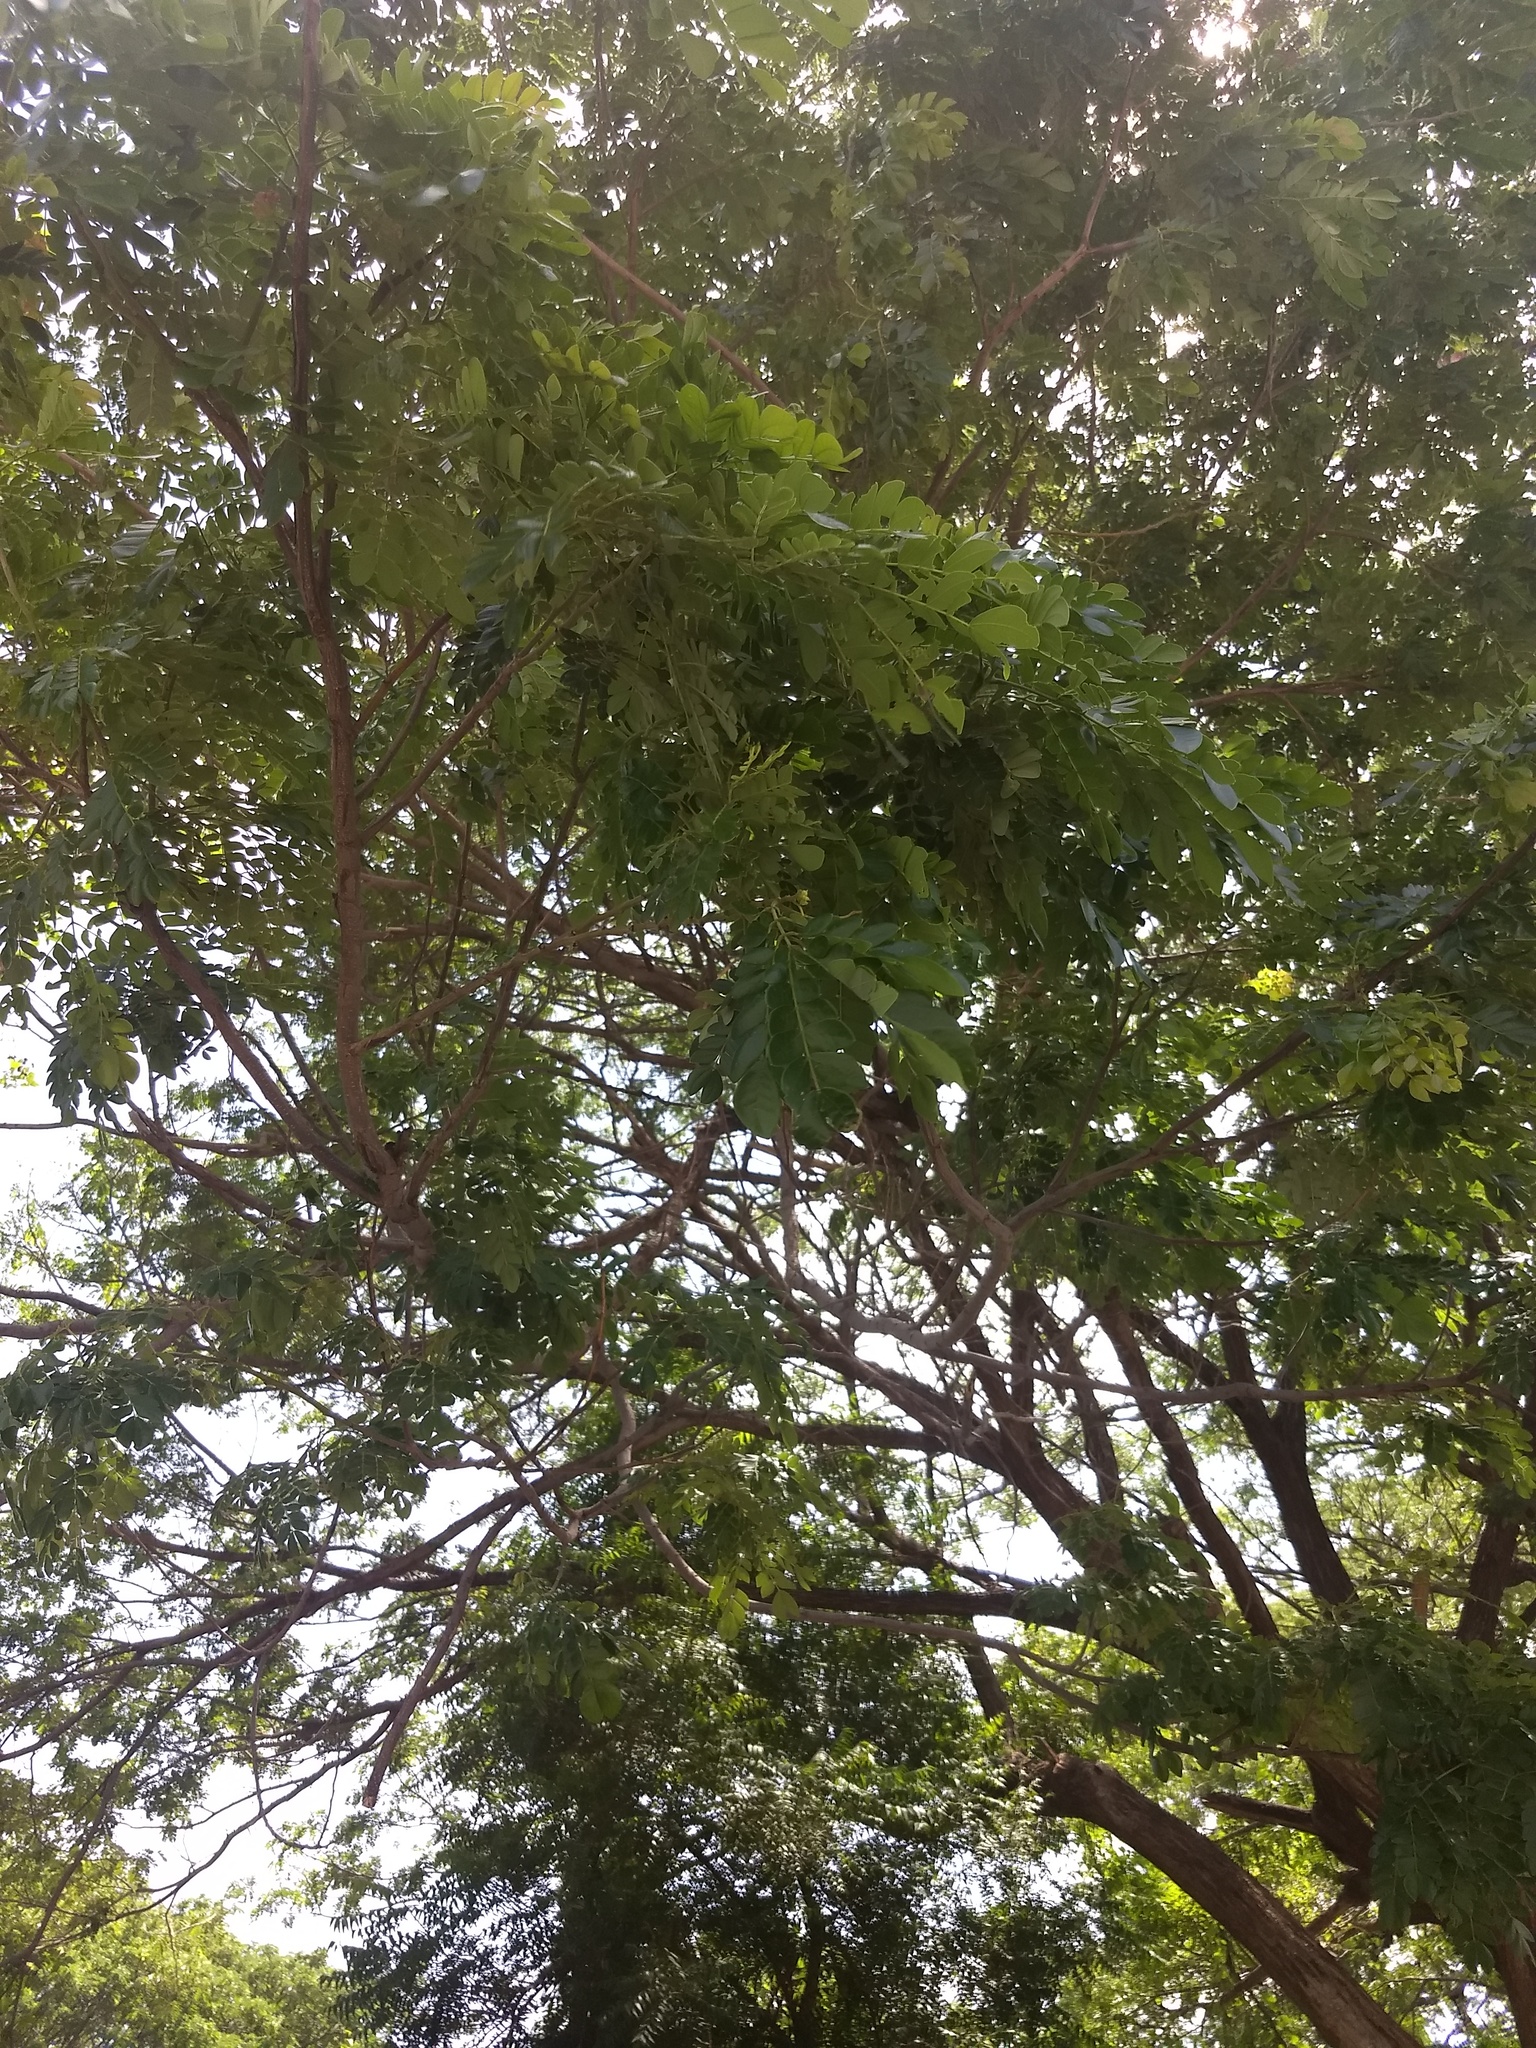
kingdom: Plantae
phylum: Tracheophyta
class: Magnoliopsida
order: Fabales
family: Fabaceae
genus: Samanea
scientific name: Samanea saman
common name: Raintree
